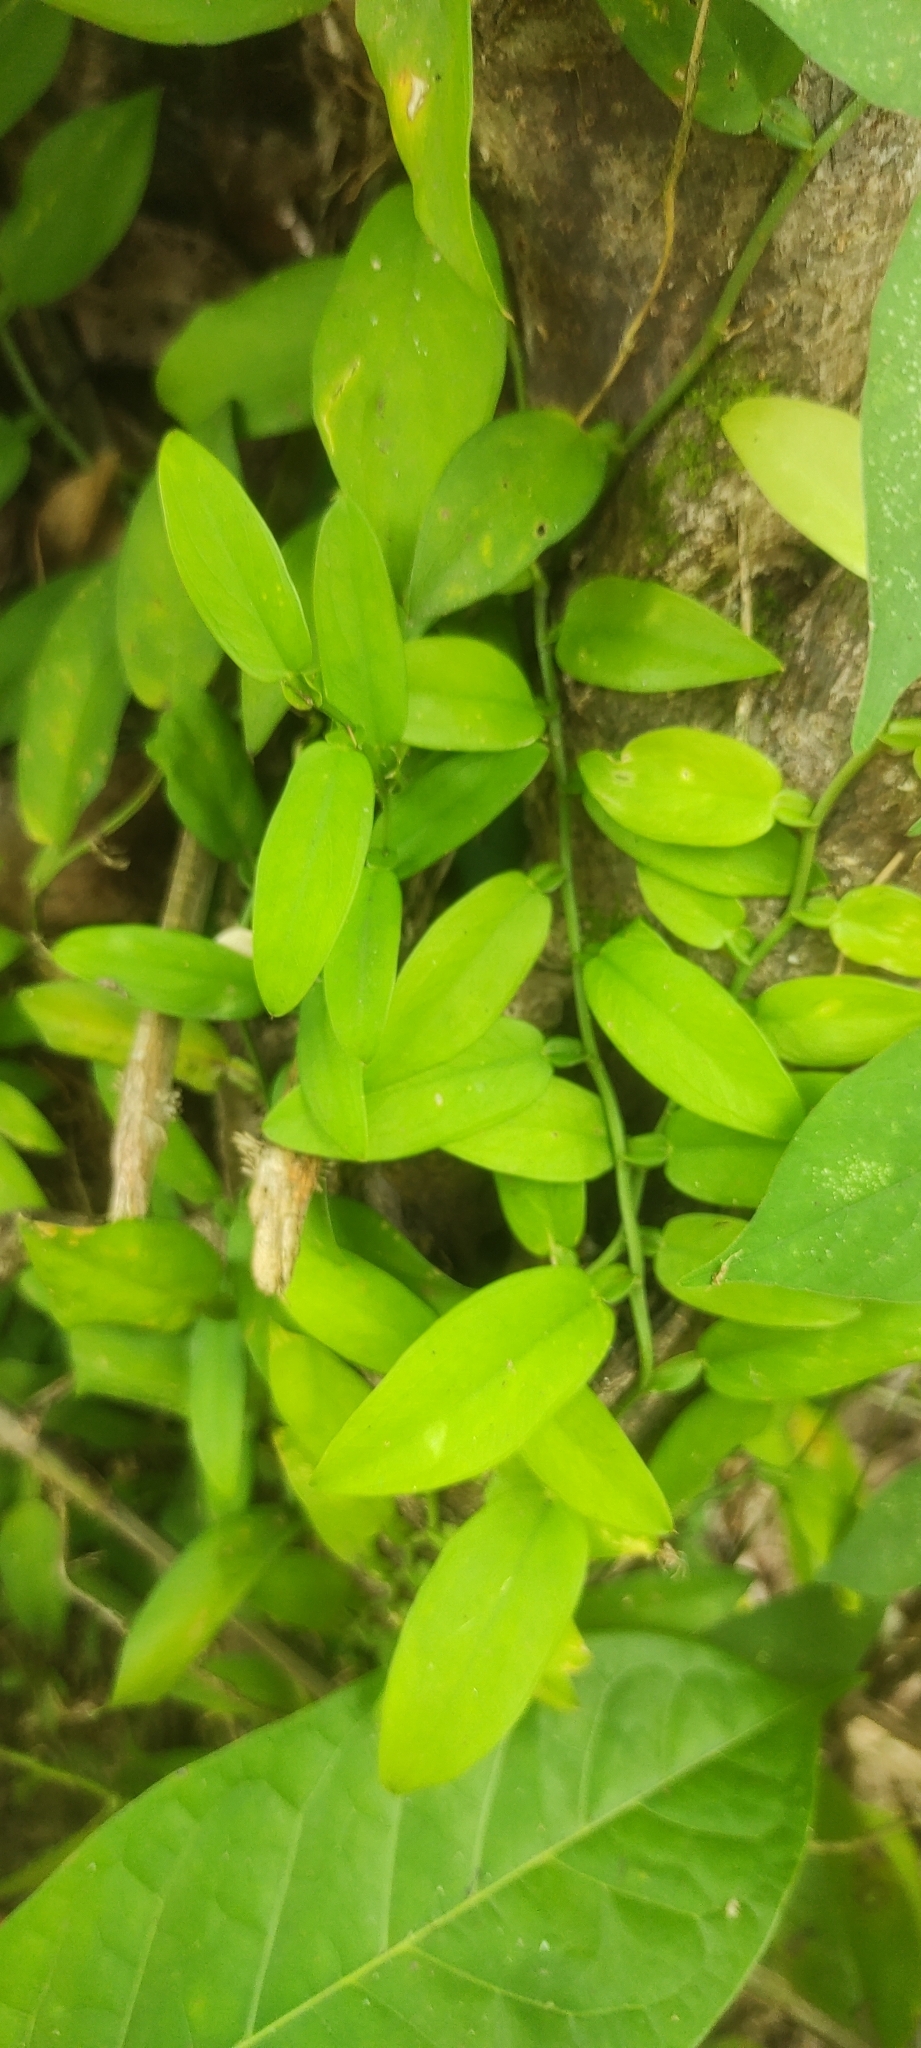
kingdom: Plantae
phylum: Tracheophyta
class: Liliopsida
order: Alismatales
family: Araceae
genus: Pothos
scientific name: Pothos chinensis
